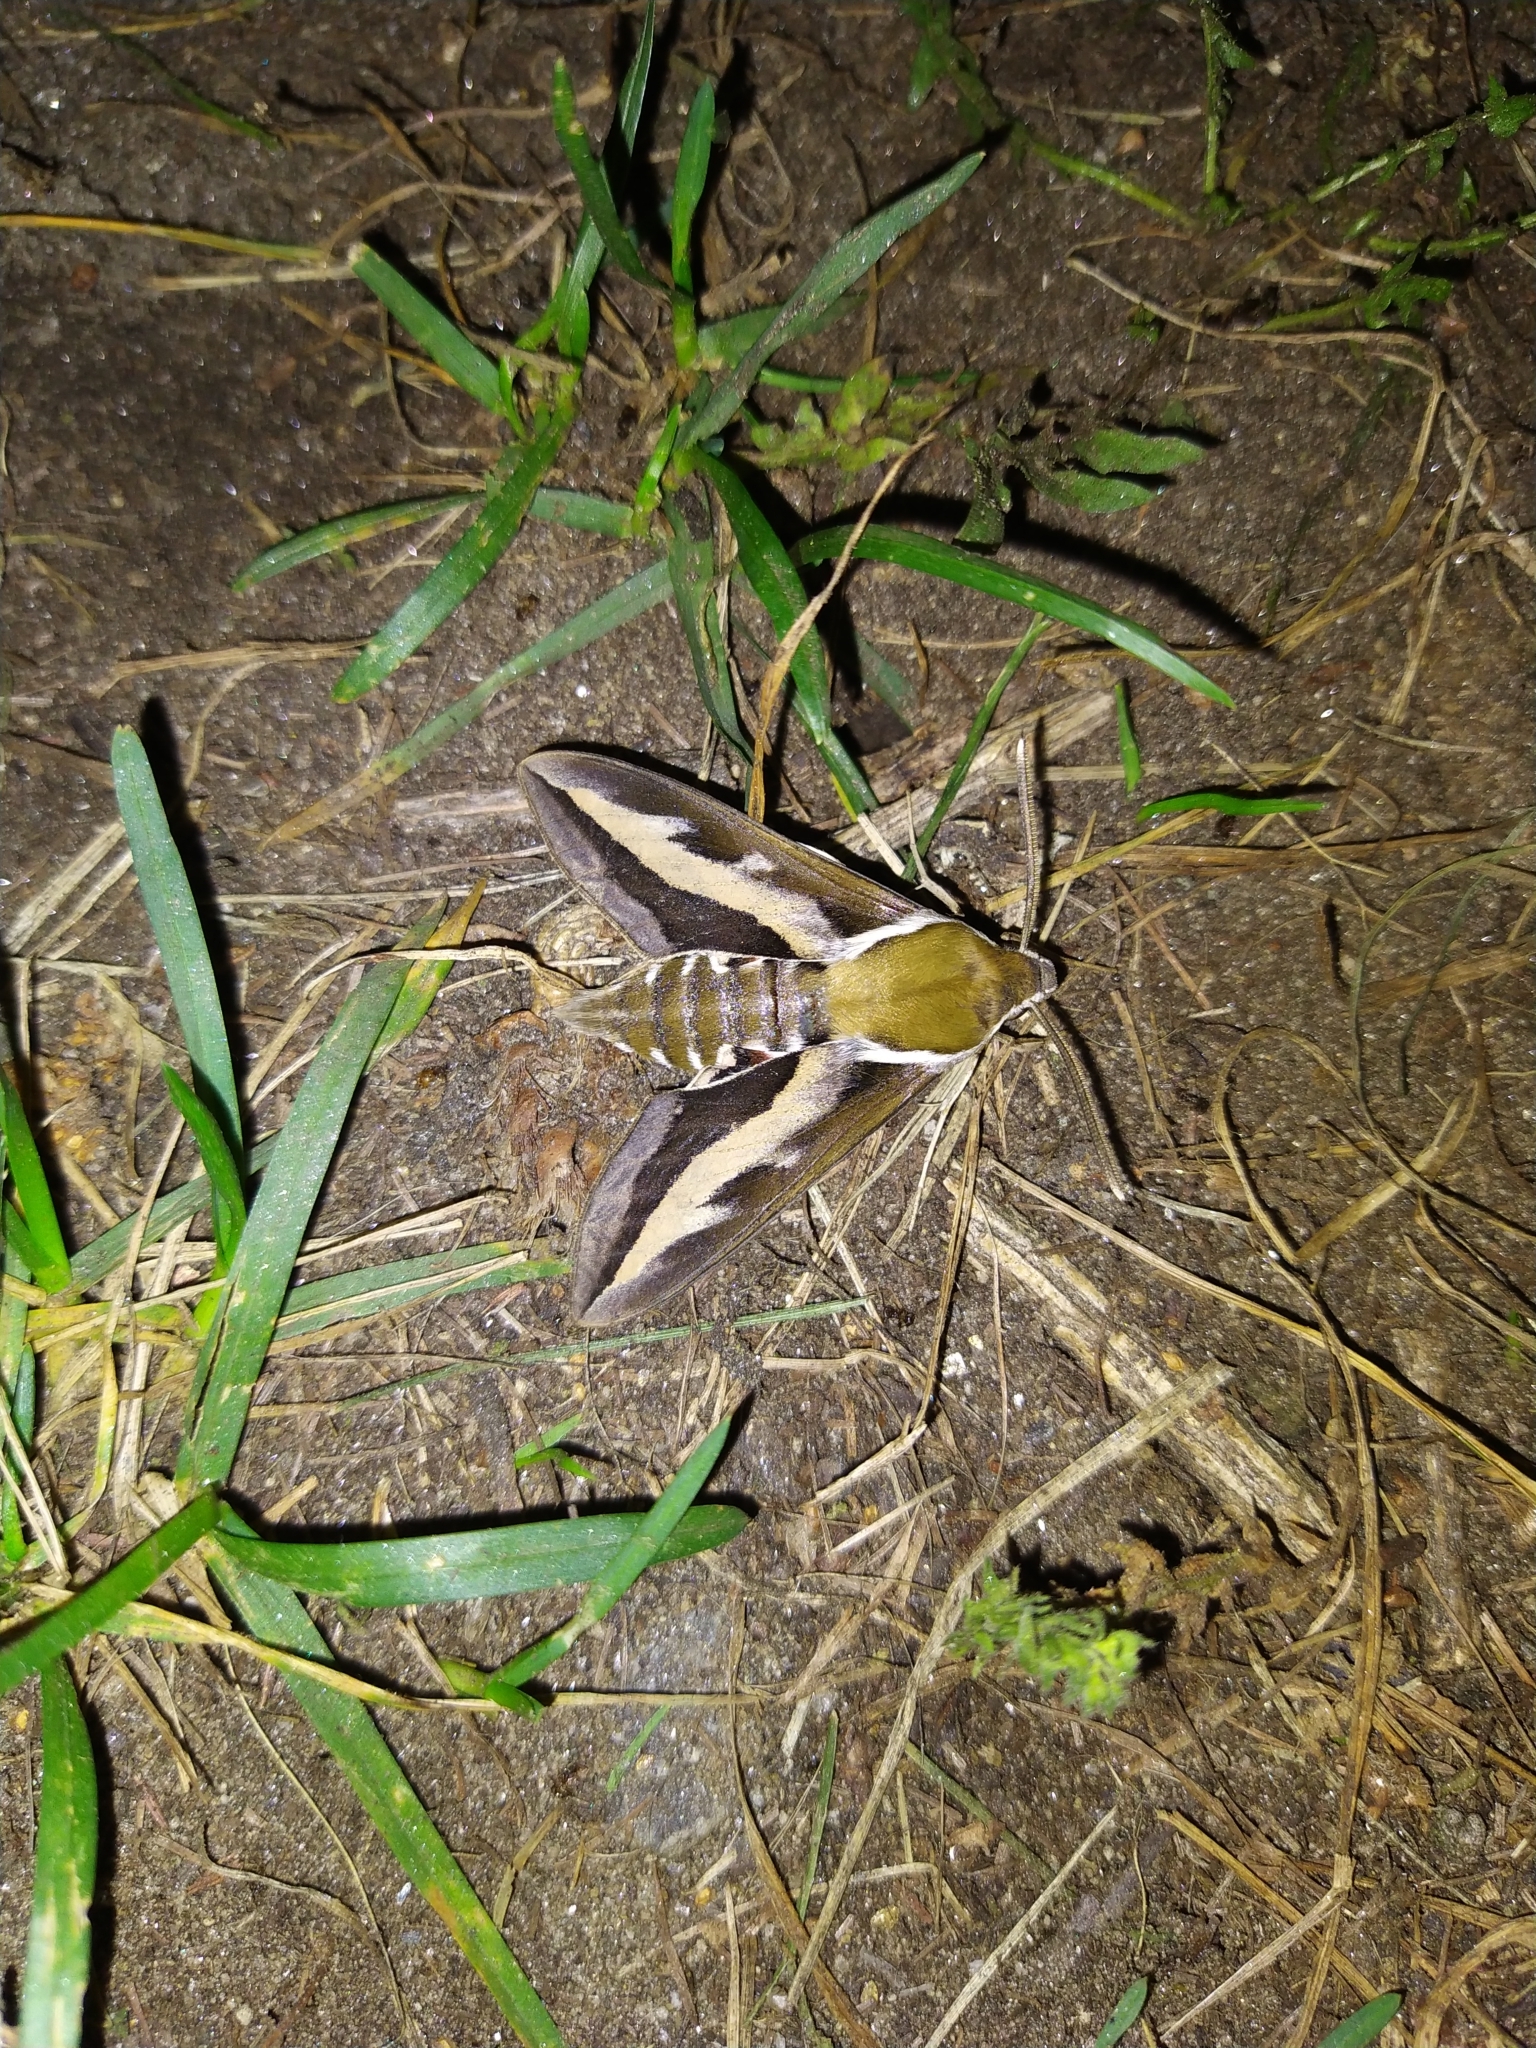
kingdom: Animalia
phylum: Arthropoda
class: Insecta
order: Lepidoptera
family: Sphingidae
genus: Hyles
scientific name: Hyles gallii
